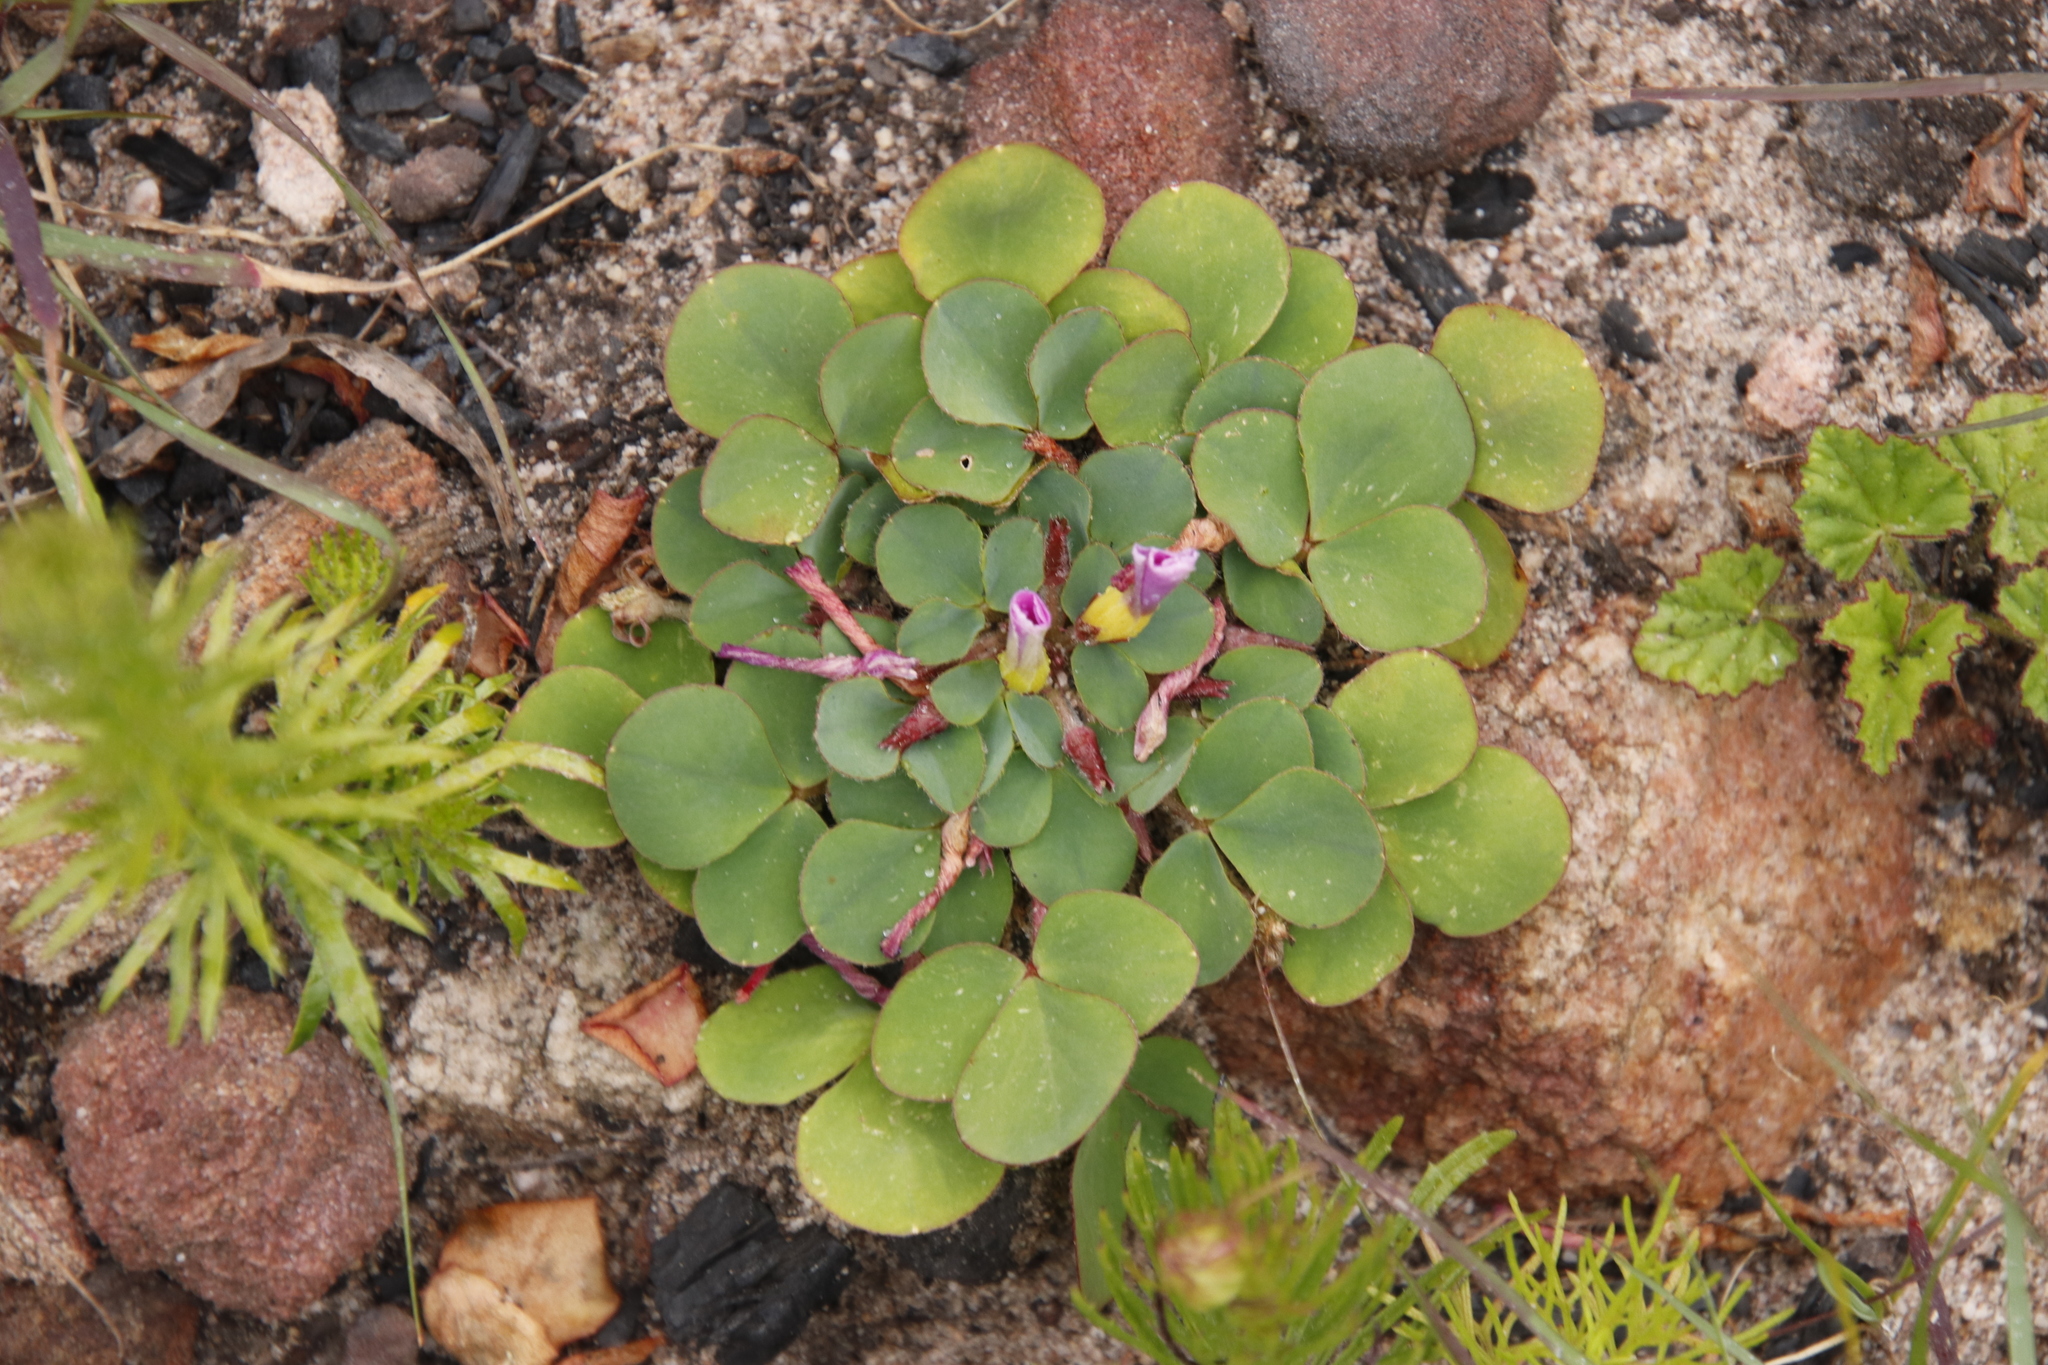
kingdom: Plantae
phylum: Tracheophyta
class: Magnoliopsida
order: Oxalidales
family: Oxalidaceae
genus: Oxalis
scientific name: Oxalis purpurea
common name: Purple woodsorrel
